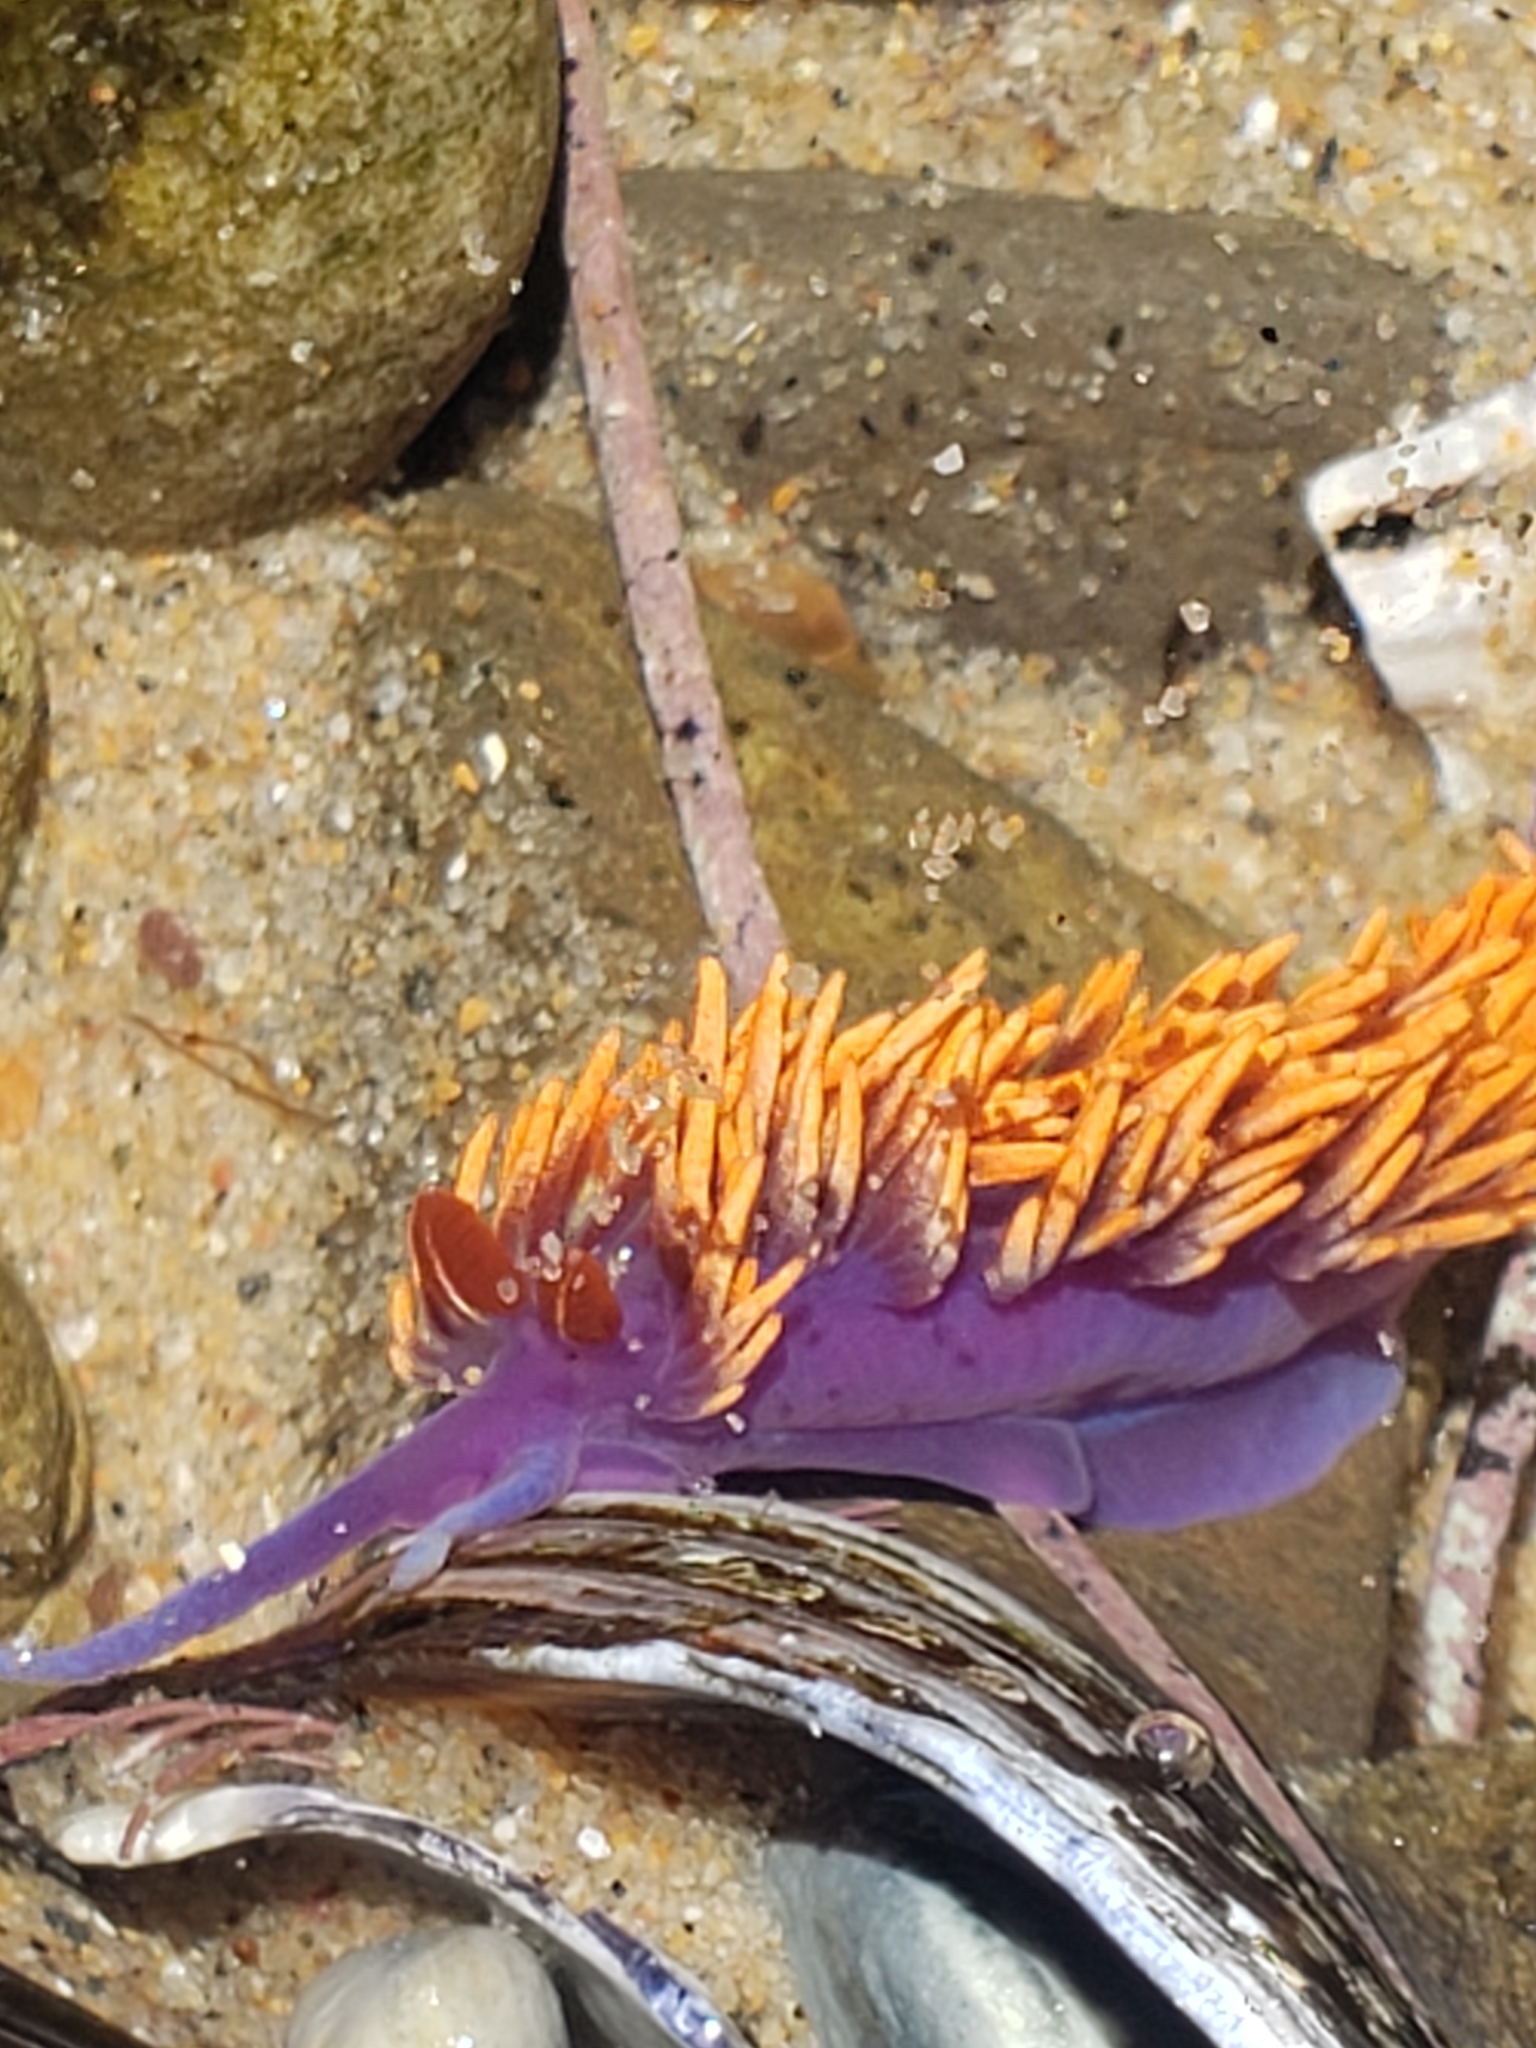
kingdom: Animalia
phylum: Mollusca
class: Gastropoda
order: Nudibranchia
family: Flabellinopsidae
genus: Flabellinopsis
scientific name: Flabellinopsis iodinea
